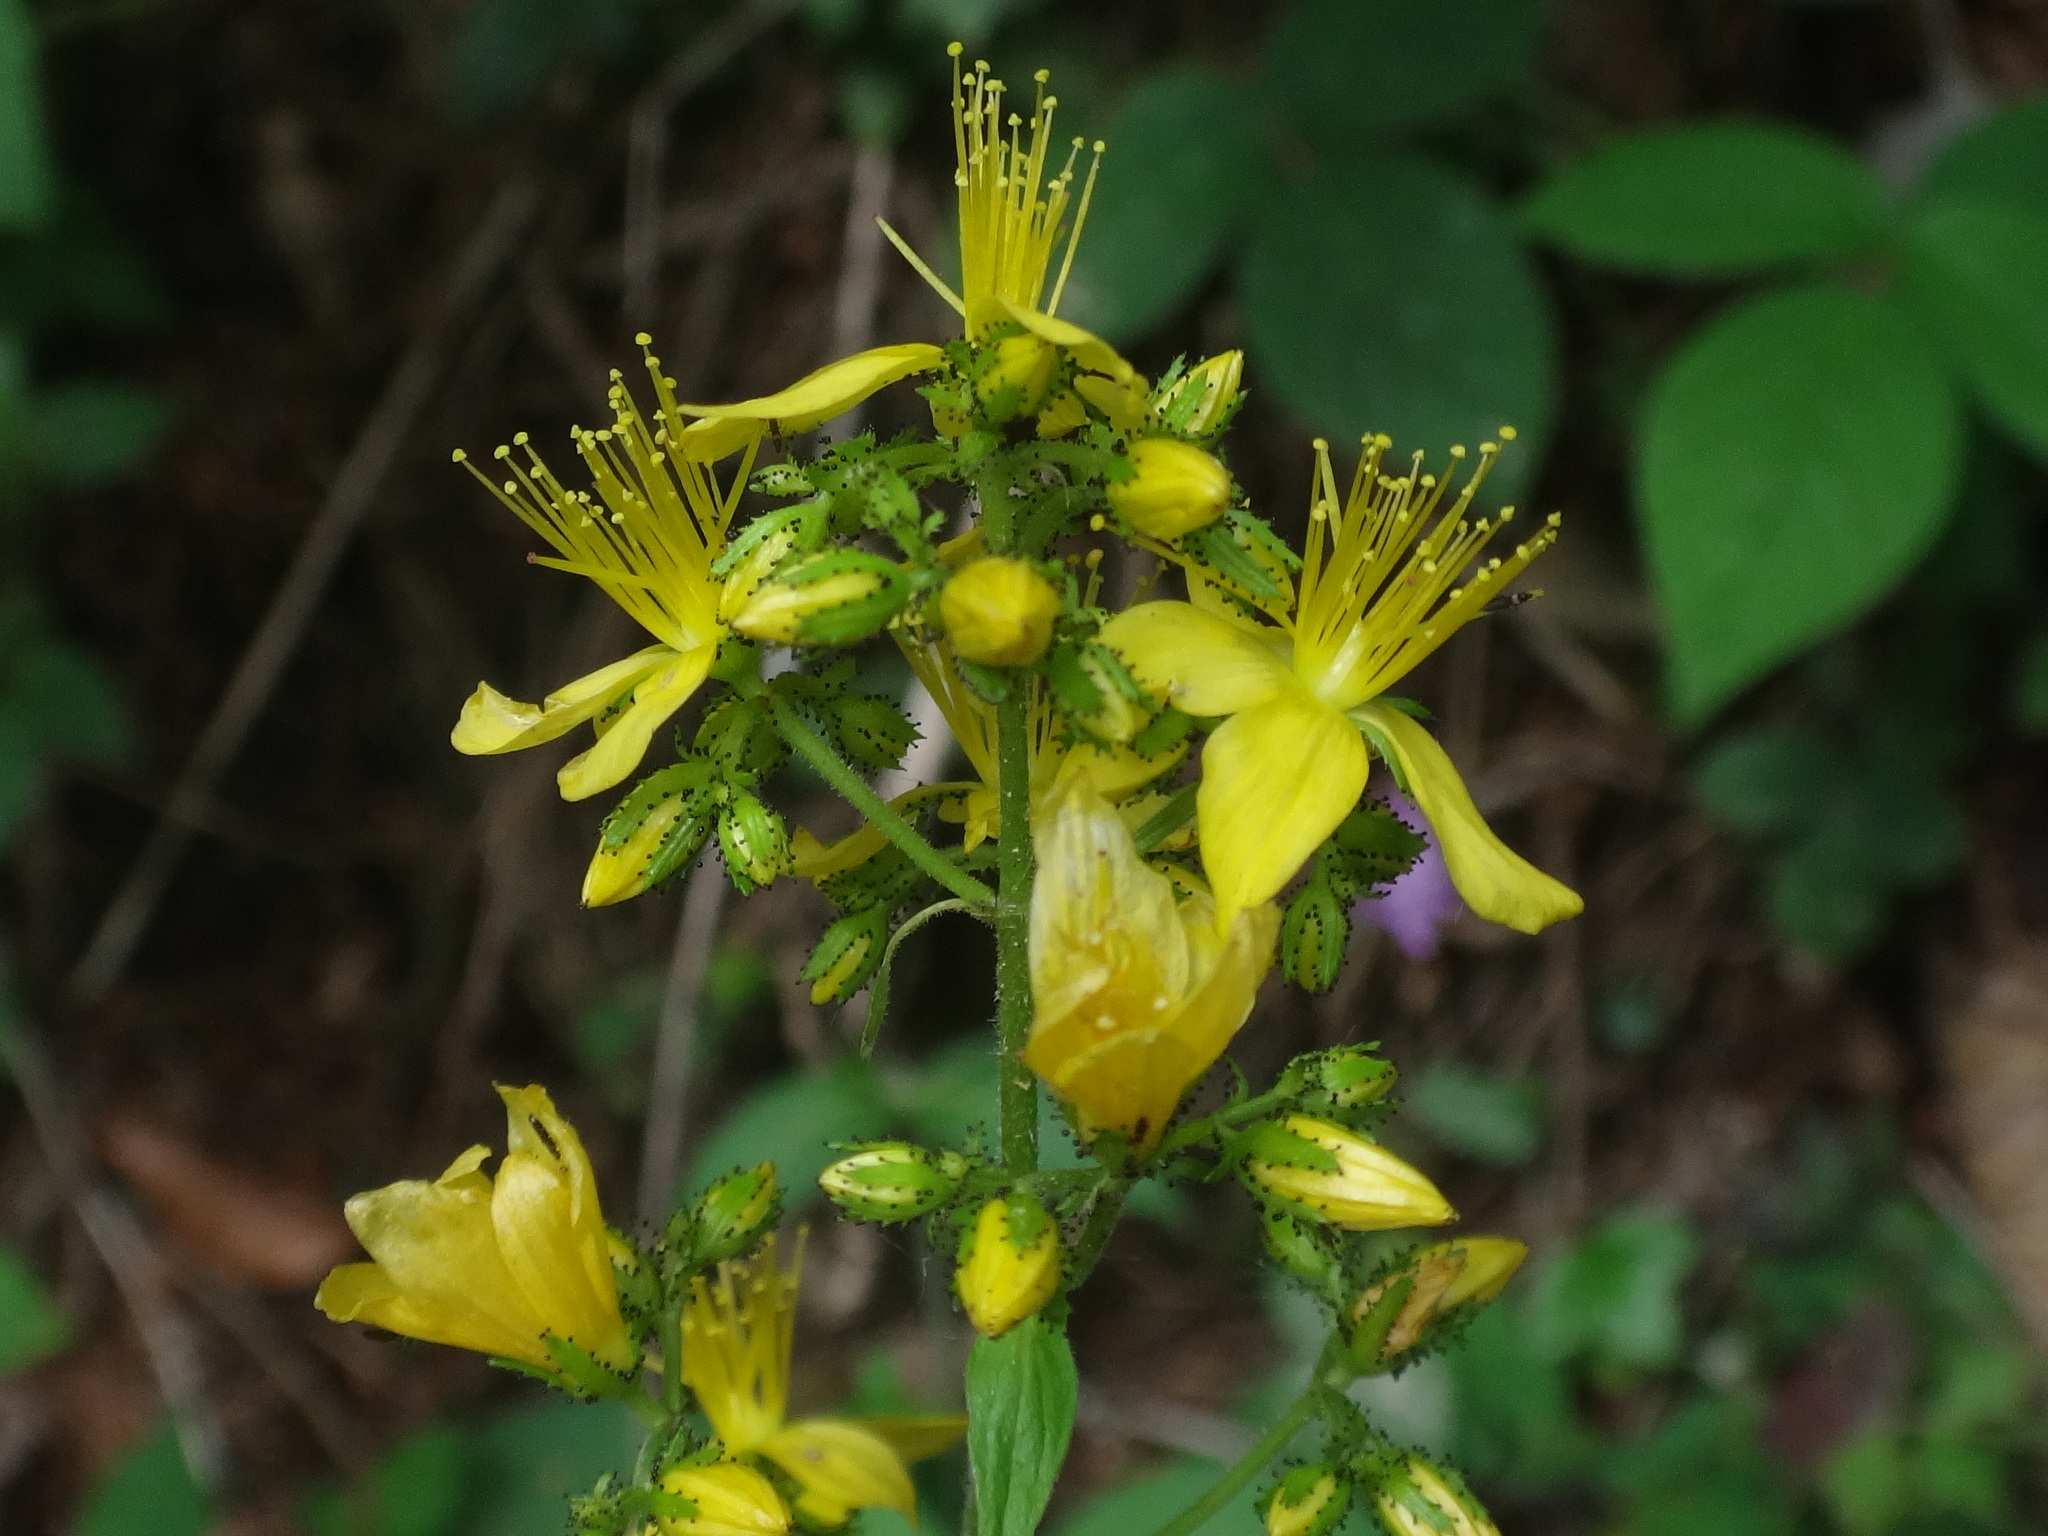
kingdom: Plantae
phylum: Tracheophyta
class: Magnoliopsida
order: Malpighiales
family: Hypericaceae
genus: Hypericum
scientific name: Hypericum hirsutum
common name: Hairy st. john's-wort
